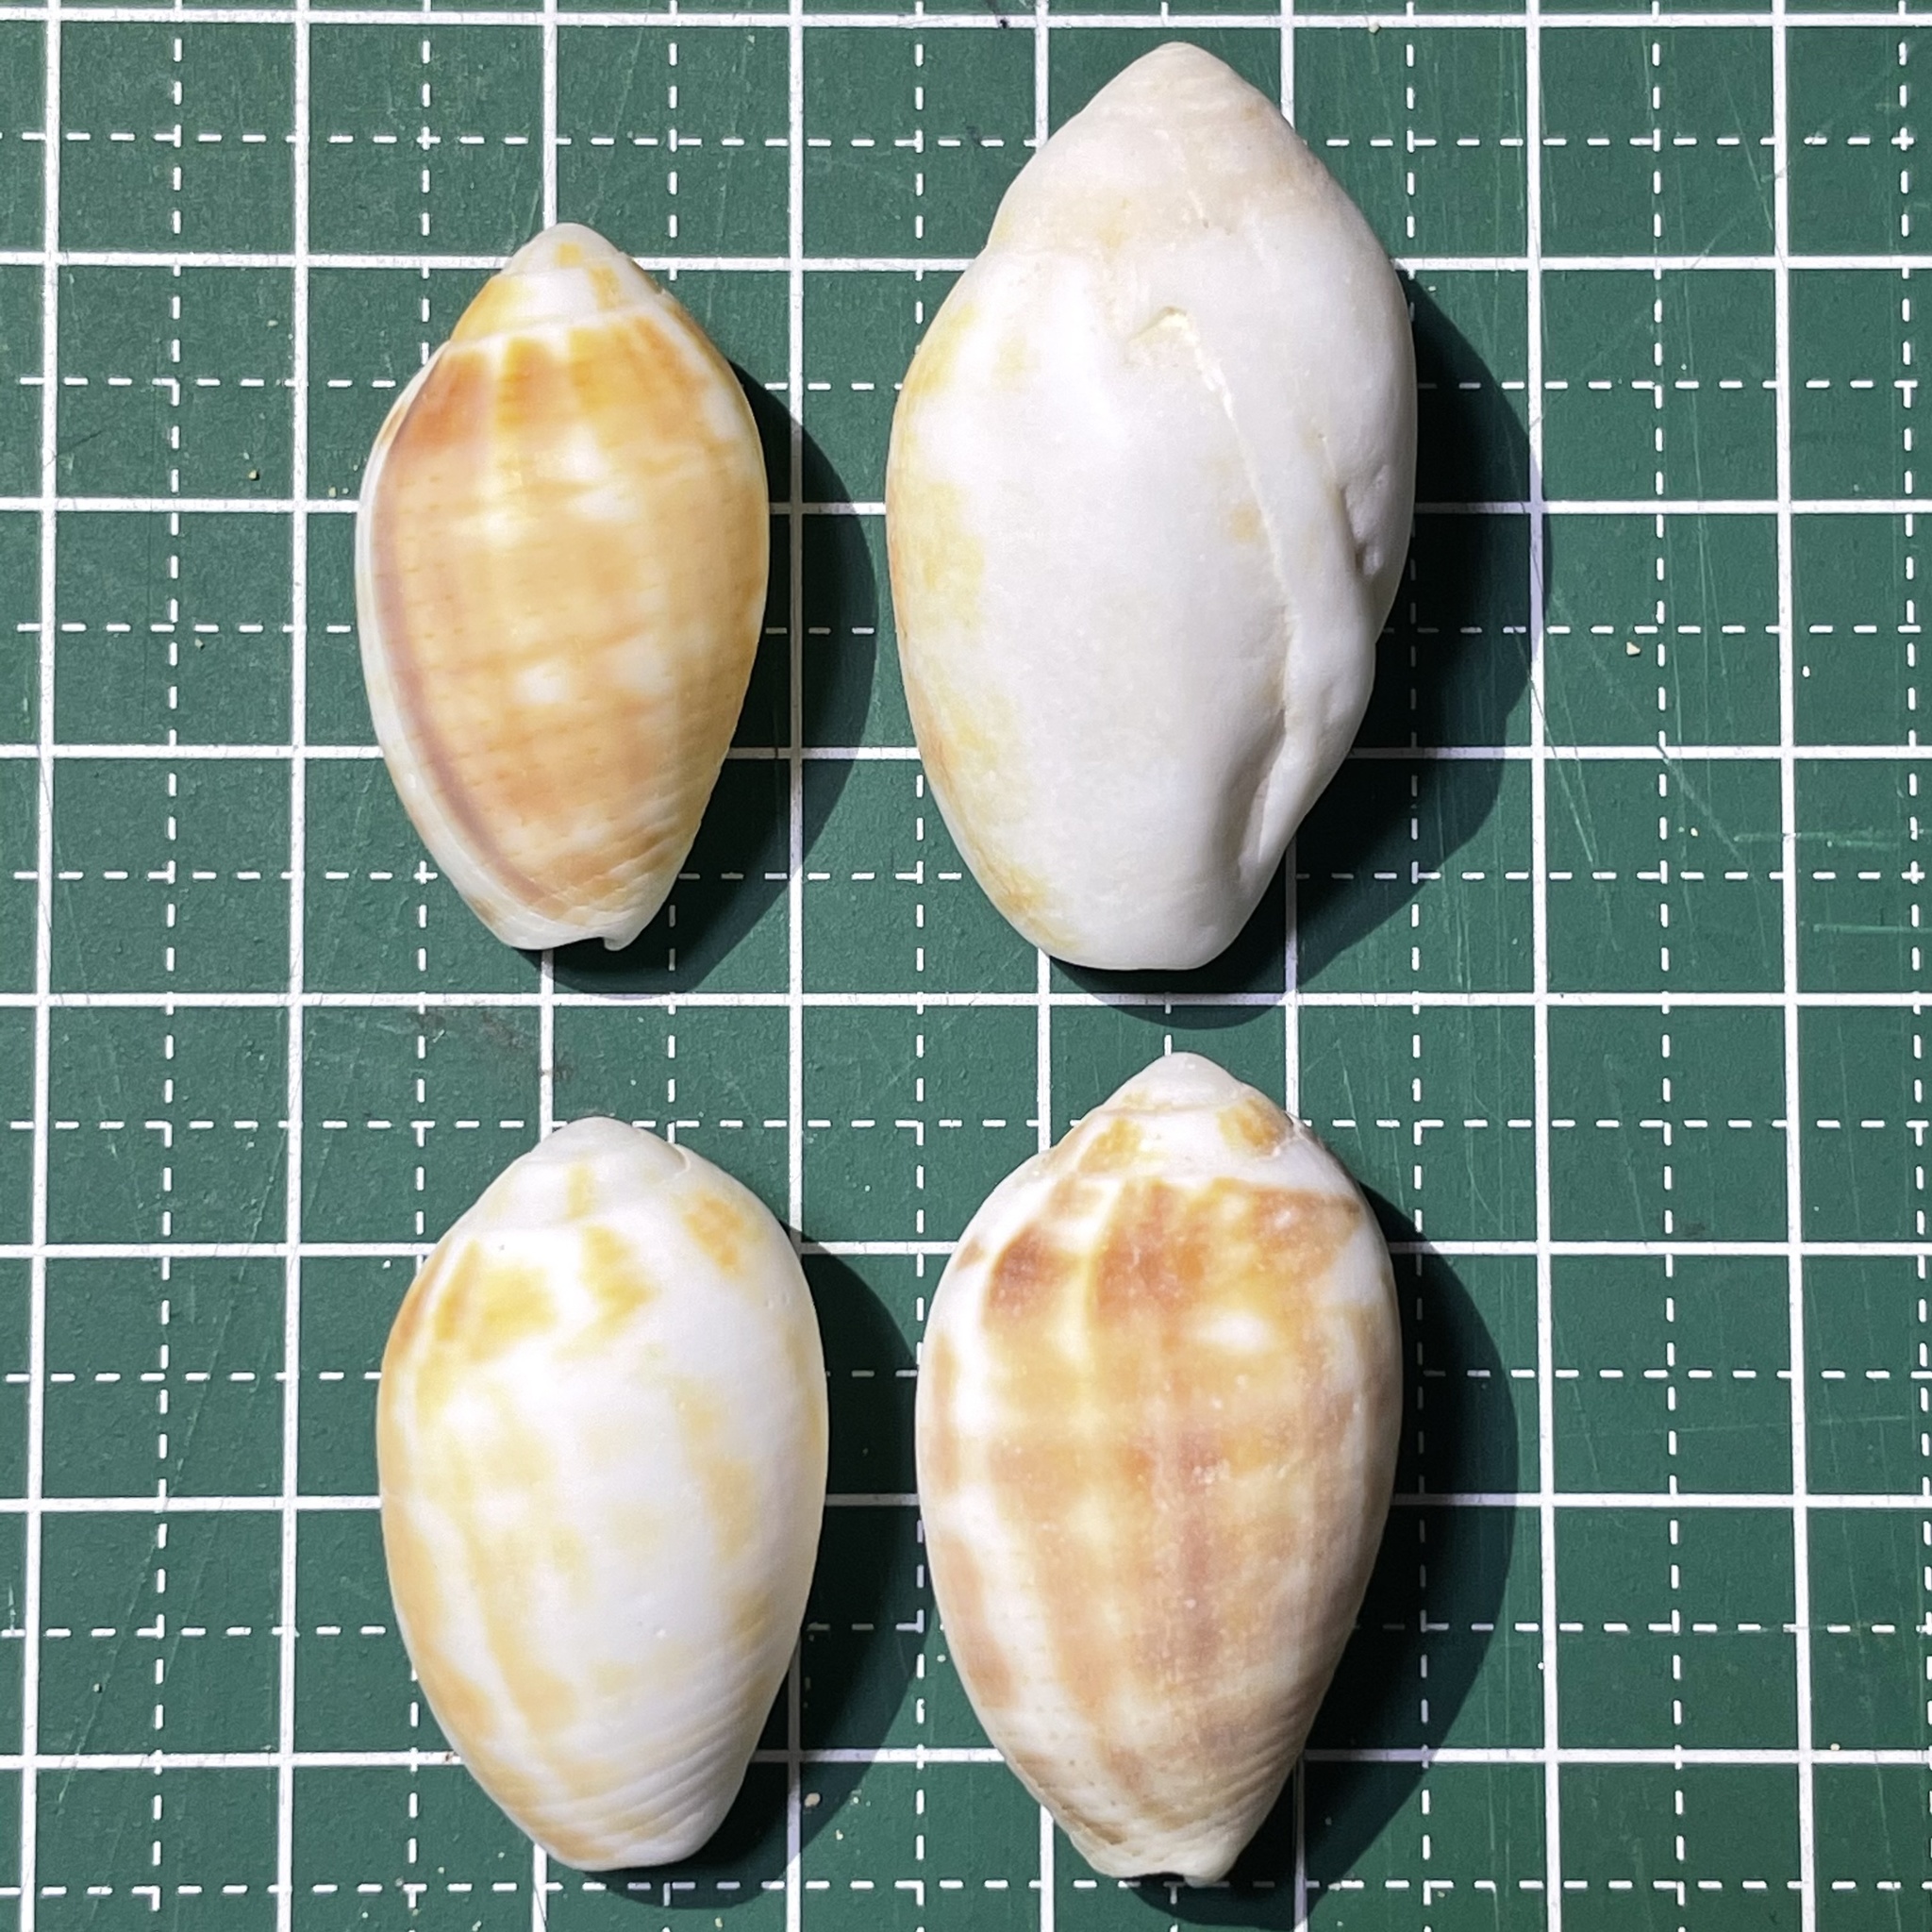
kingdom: Animalia
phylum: Mollusca
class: Gastropoda
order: Neogastropoda
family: Mitridae
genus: Pterygia
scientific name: Pterygia dactylus
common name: Finger miter
